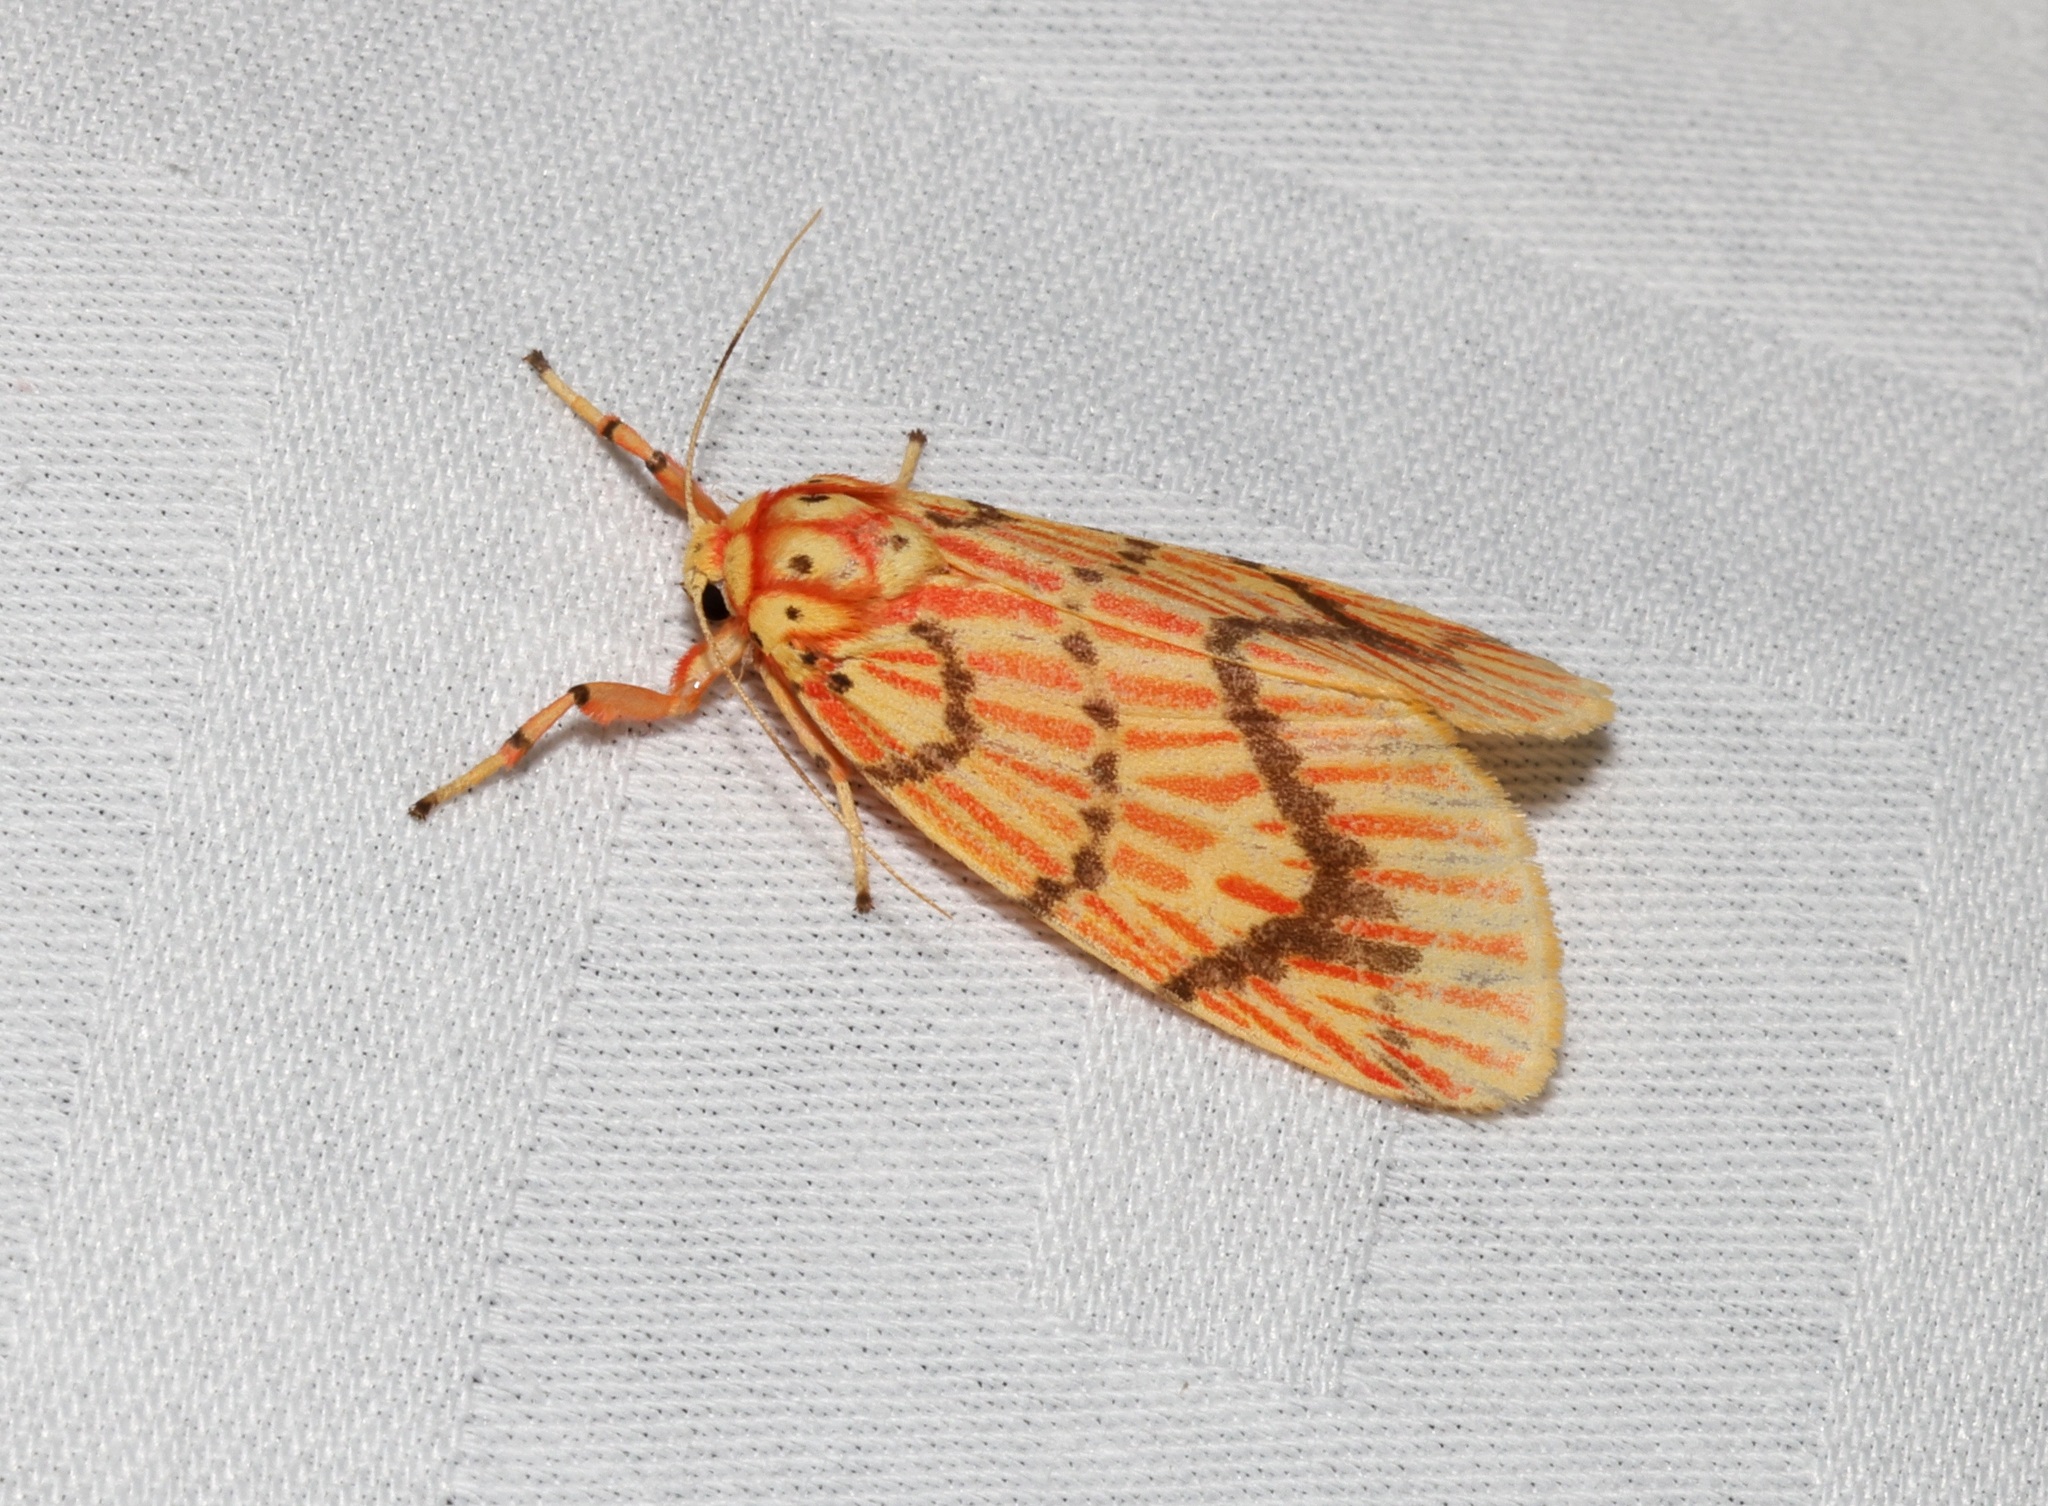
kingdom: Animalia
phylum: Arthropoda
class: Insecta
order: Lepidoptera
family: Erebidae
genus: Barsine
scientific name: Barsine striata
